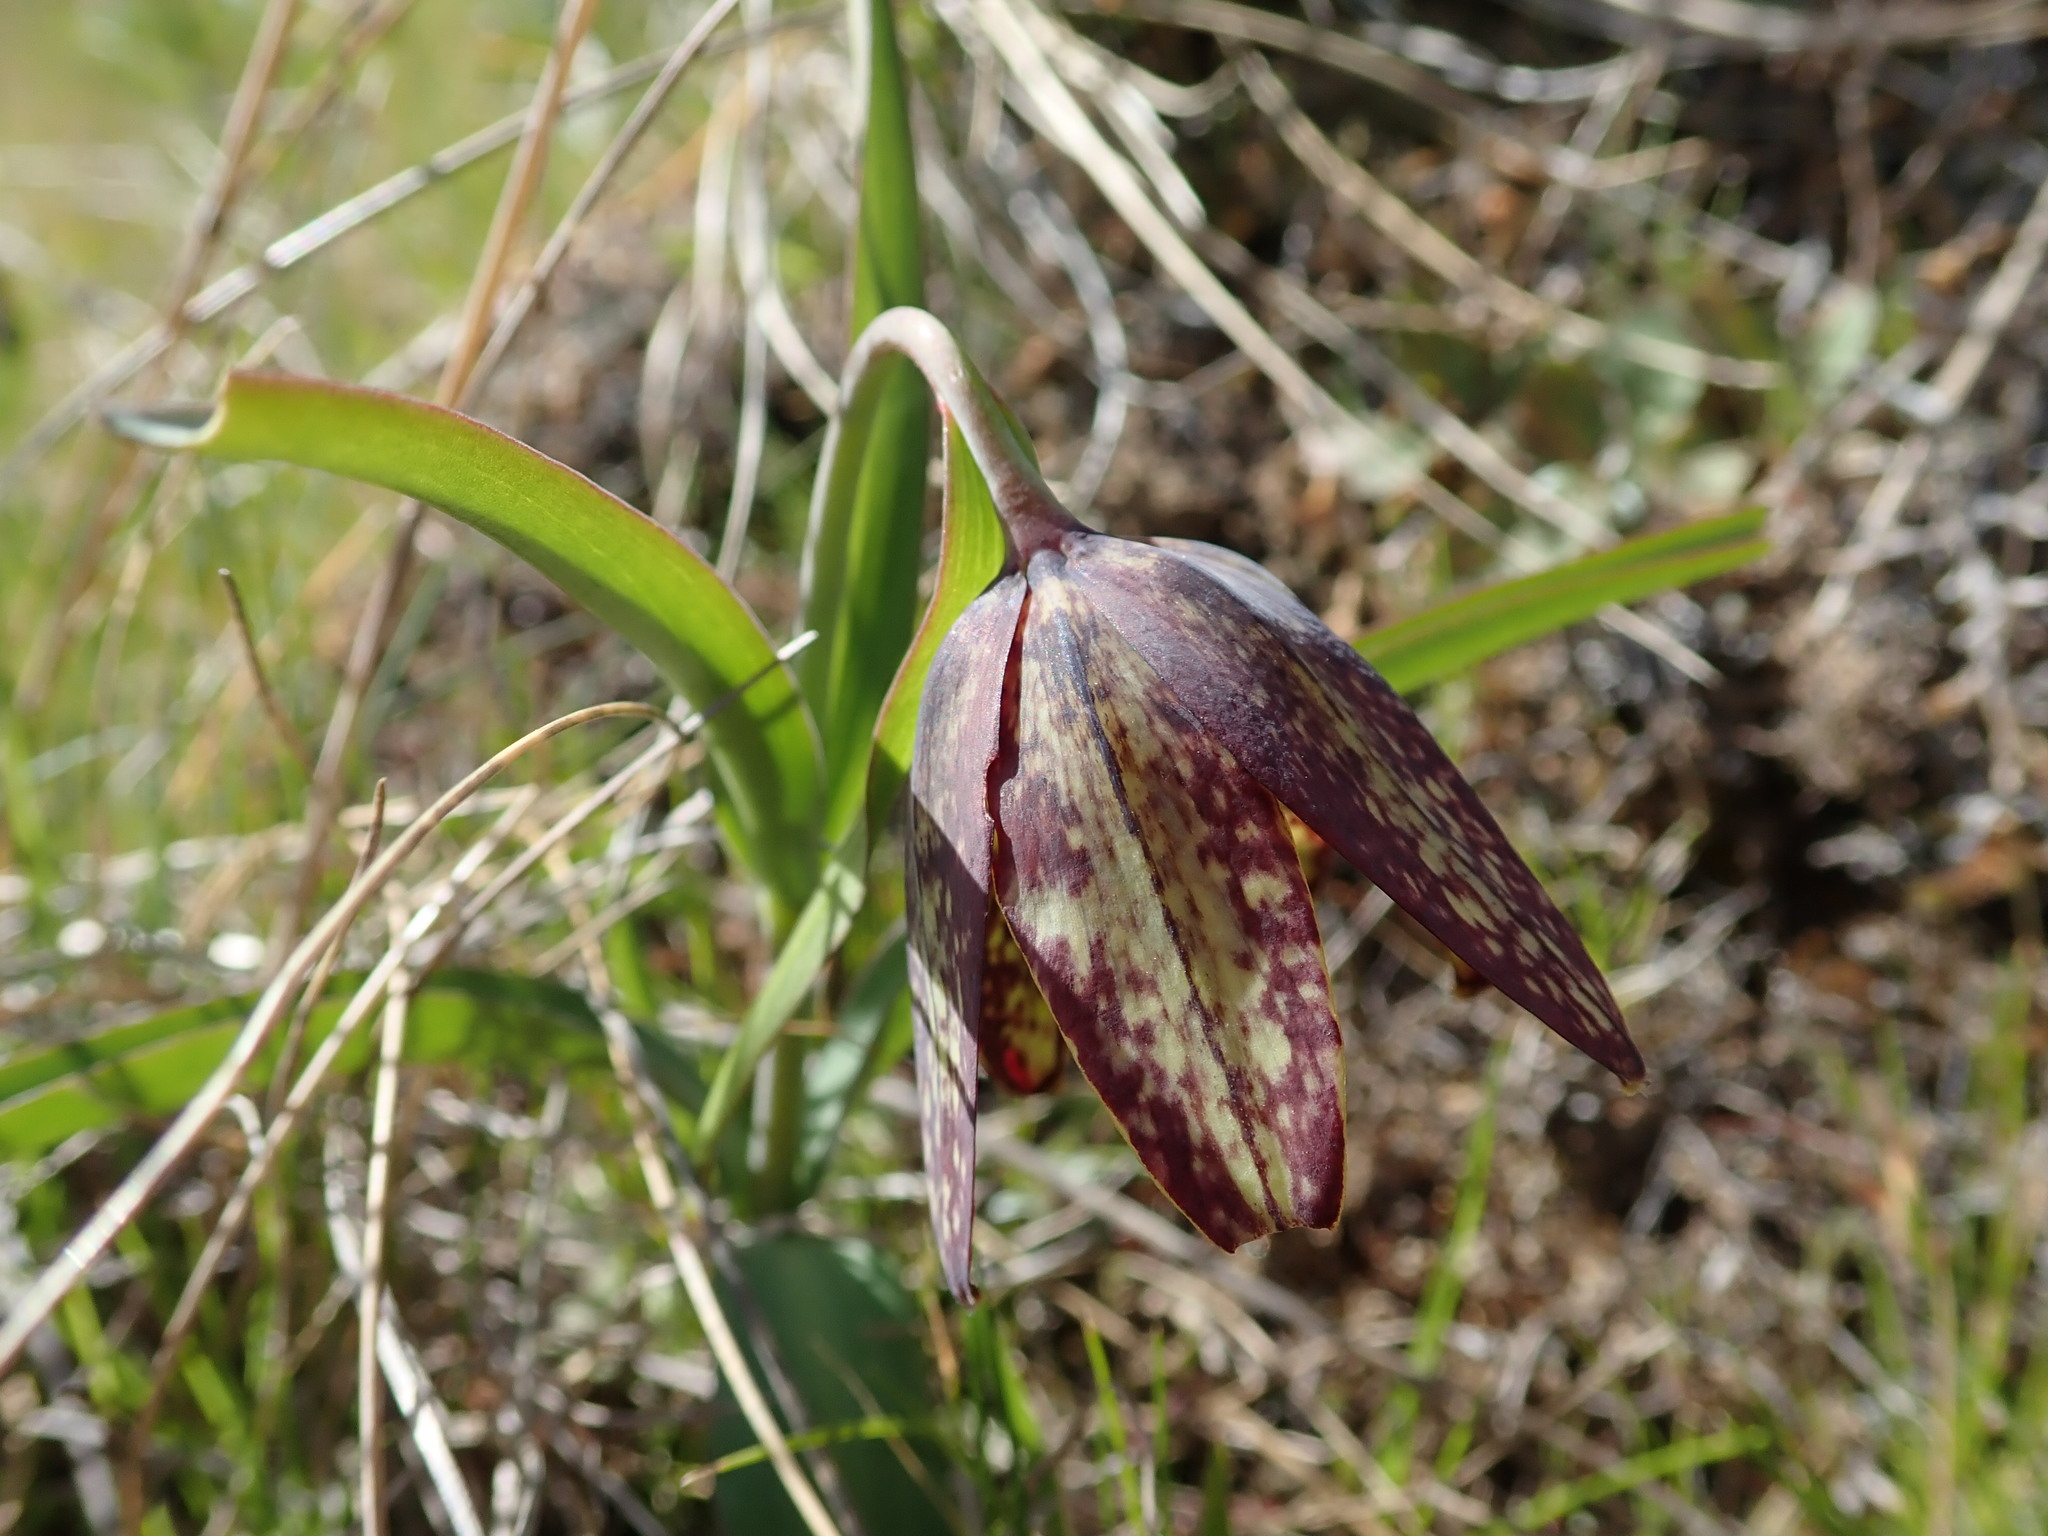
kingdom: Plantae
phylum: Tracheophyta
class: Liliopsida
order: Liliales
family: Liliaceae
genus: Fritillaria
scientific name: Fritillaria affinis
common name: Ojai fritillary
